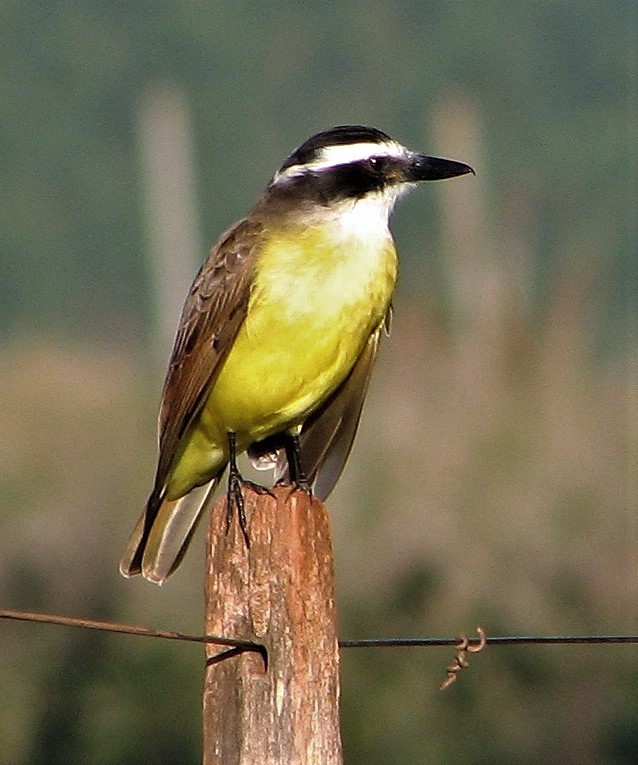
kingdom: Animalia
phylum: Chordata
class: Aves
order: Passeriformes
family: Tyrannidae
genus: Pitangus
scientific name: Pitangus sulphuratus
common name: Great kiskadee
